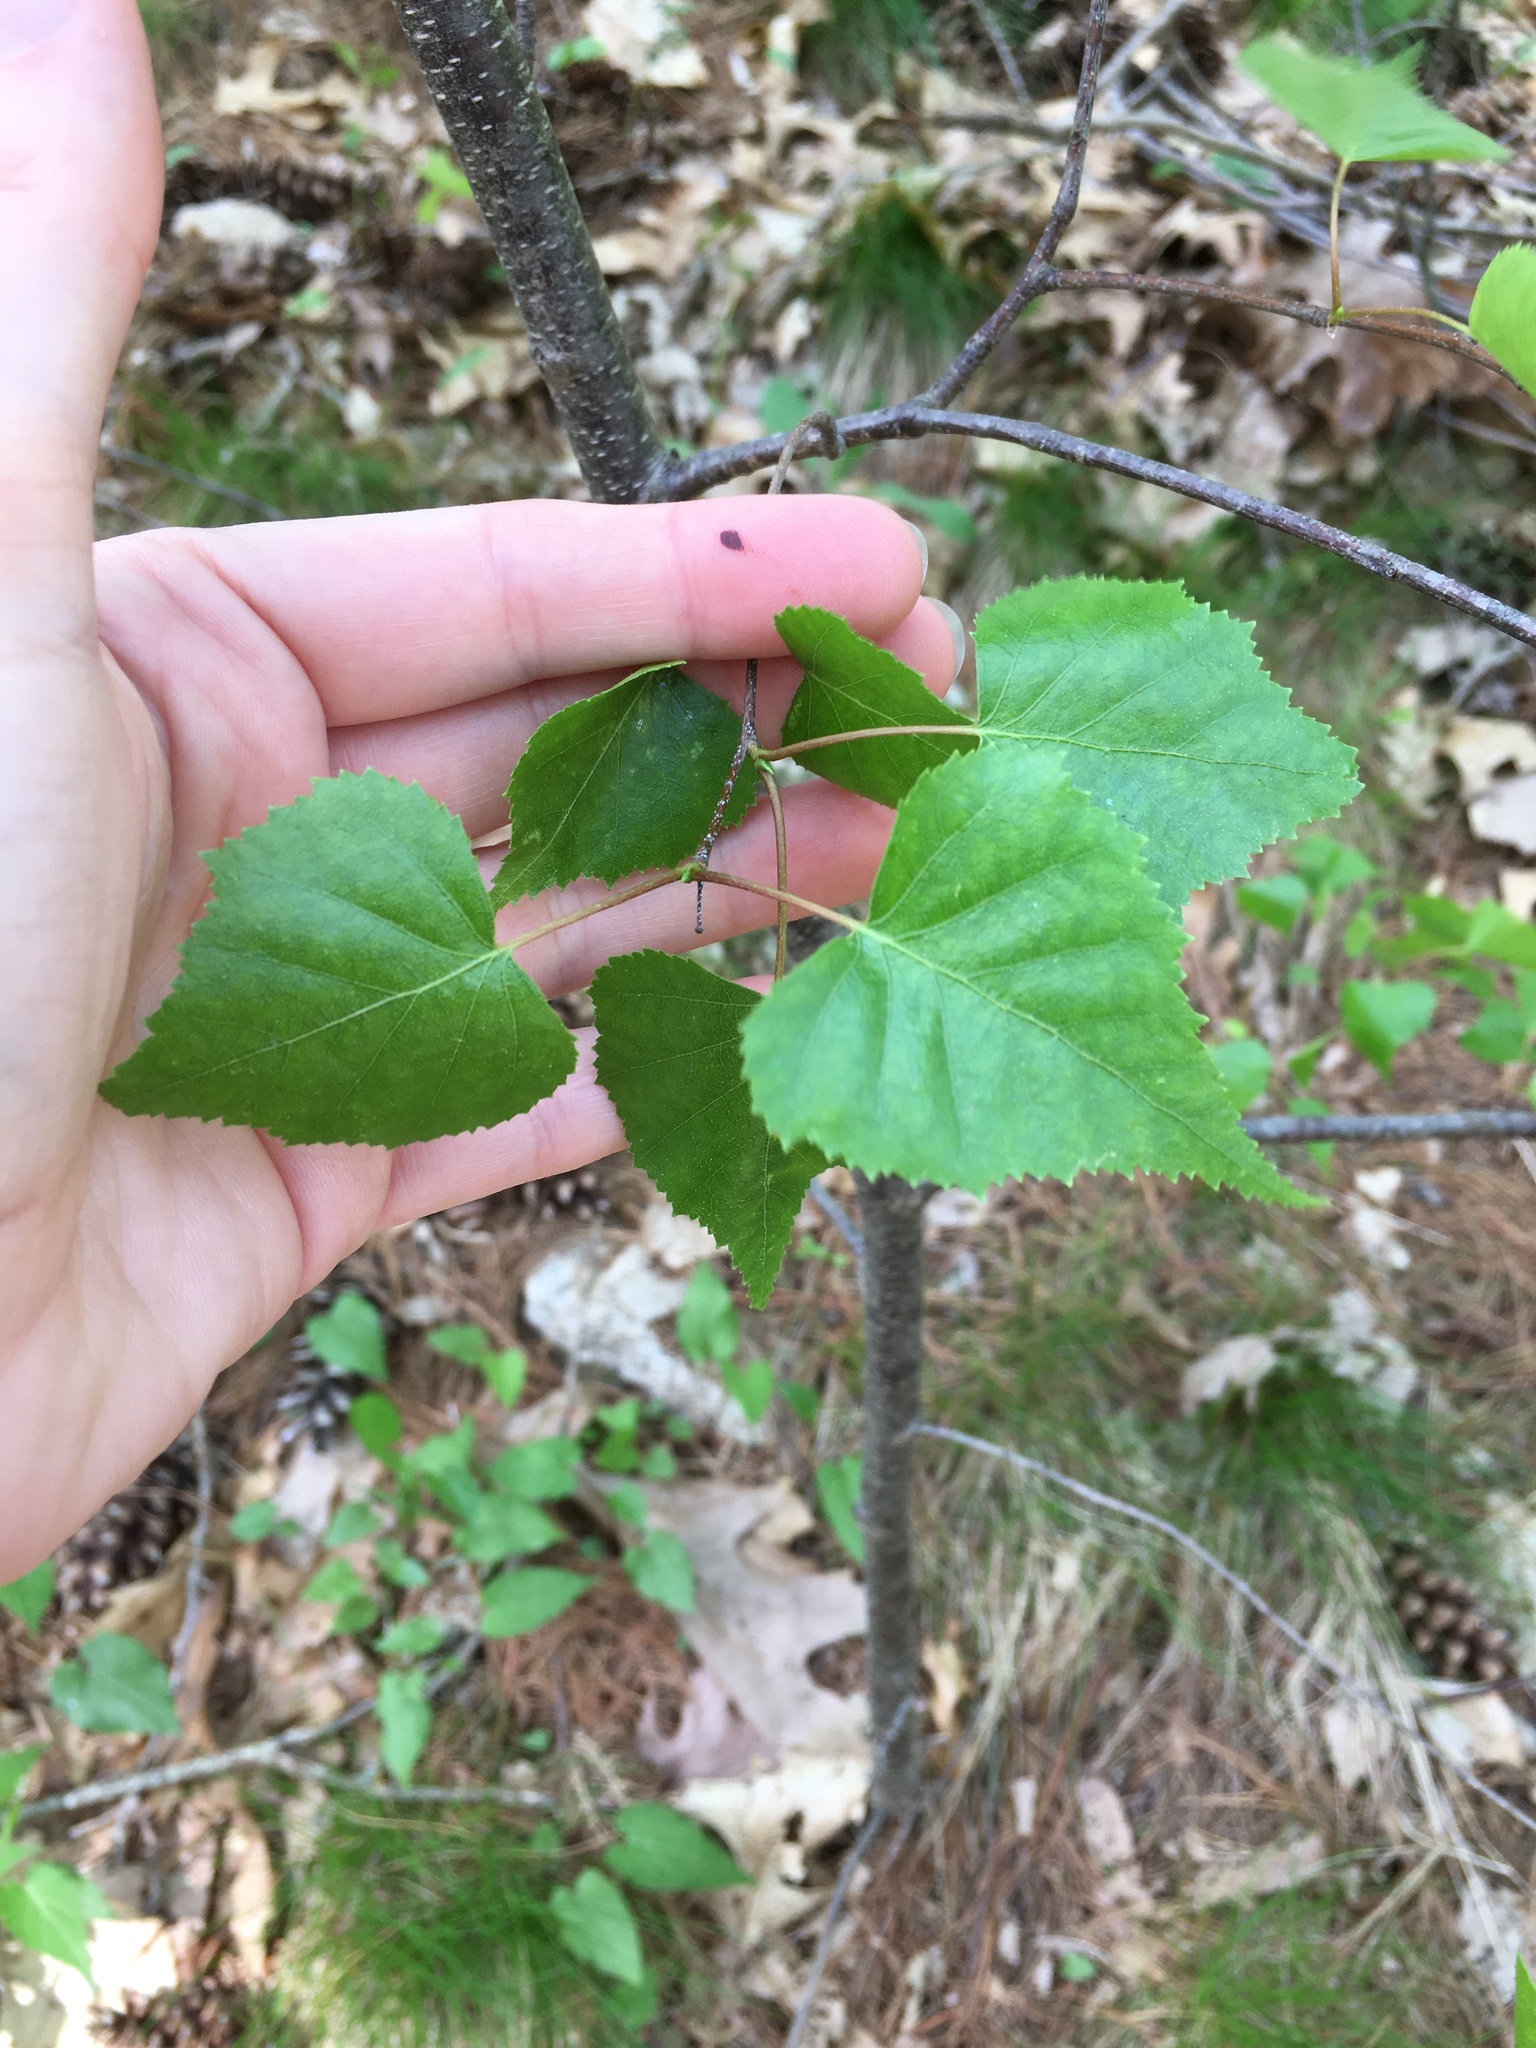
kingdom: Plantae
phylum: Tracheophyta
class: Magnoliopsida
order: Fagales
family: Betulaceae
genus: Betula
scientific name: Betula populifolia
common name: Fire birch
